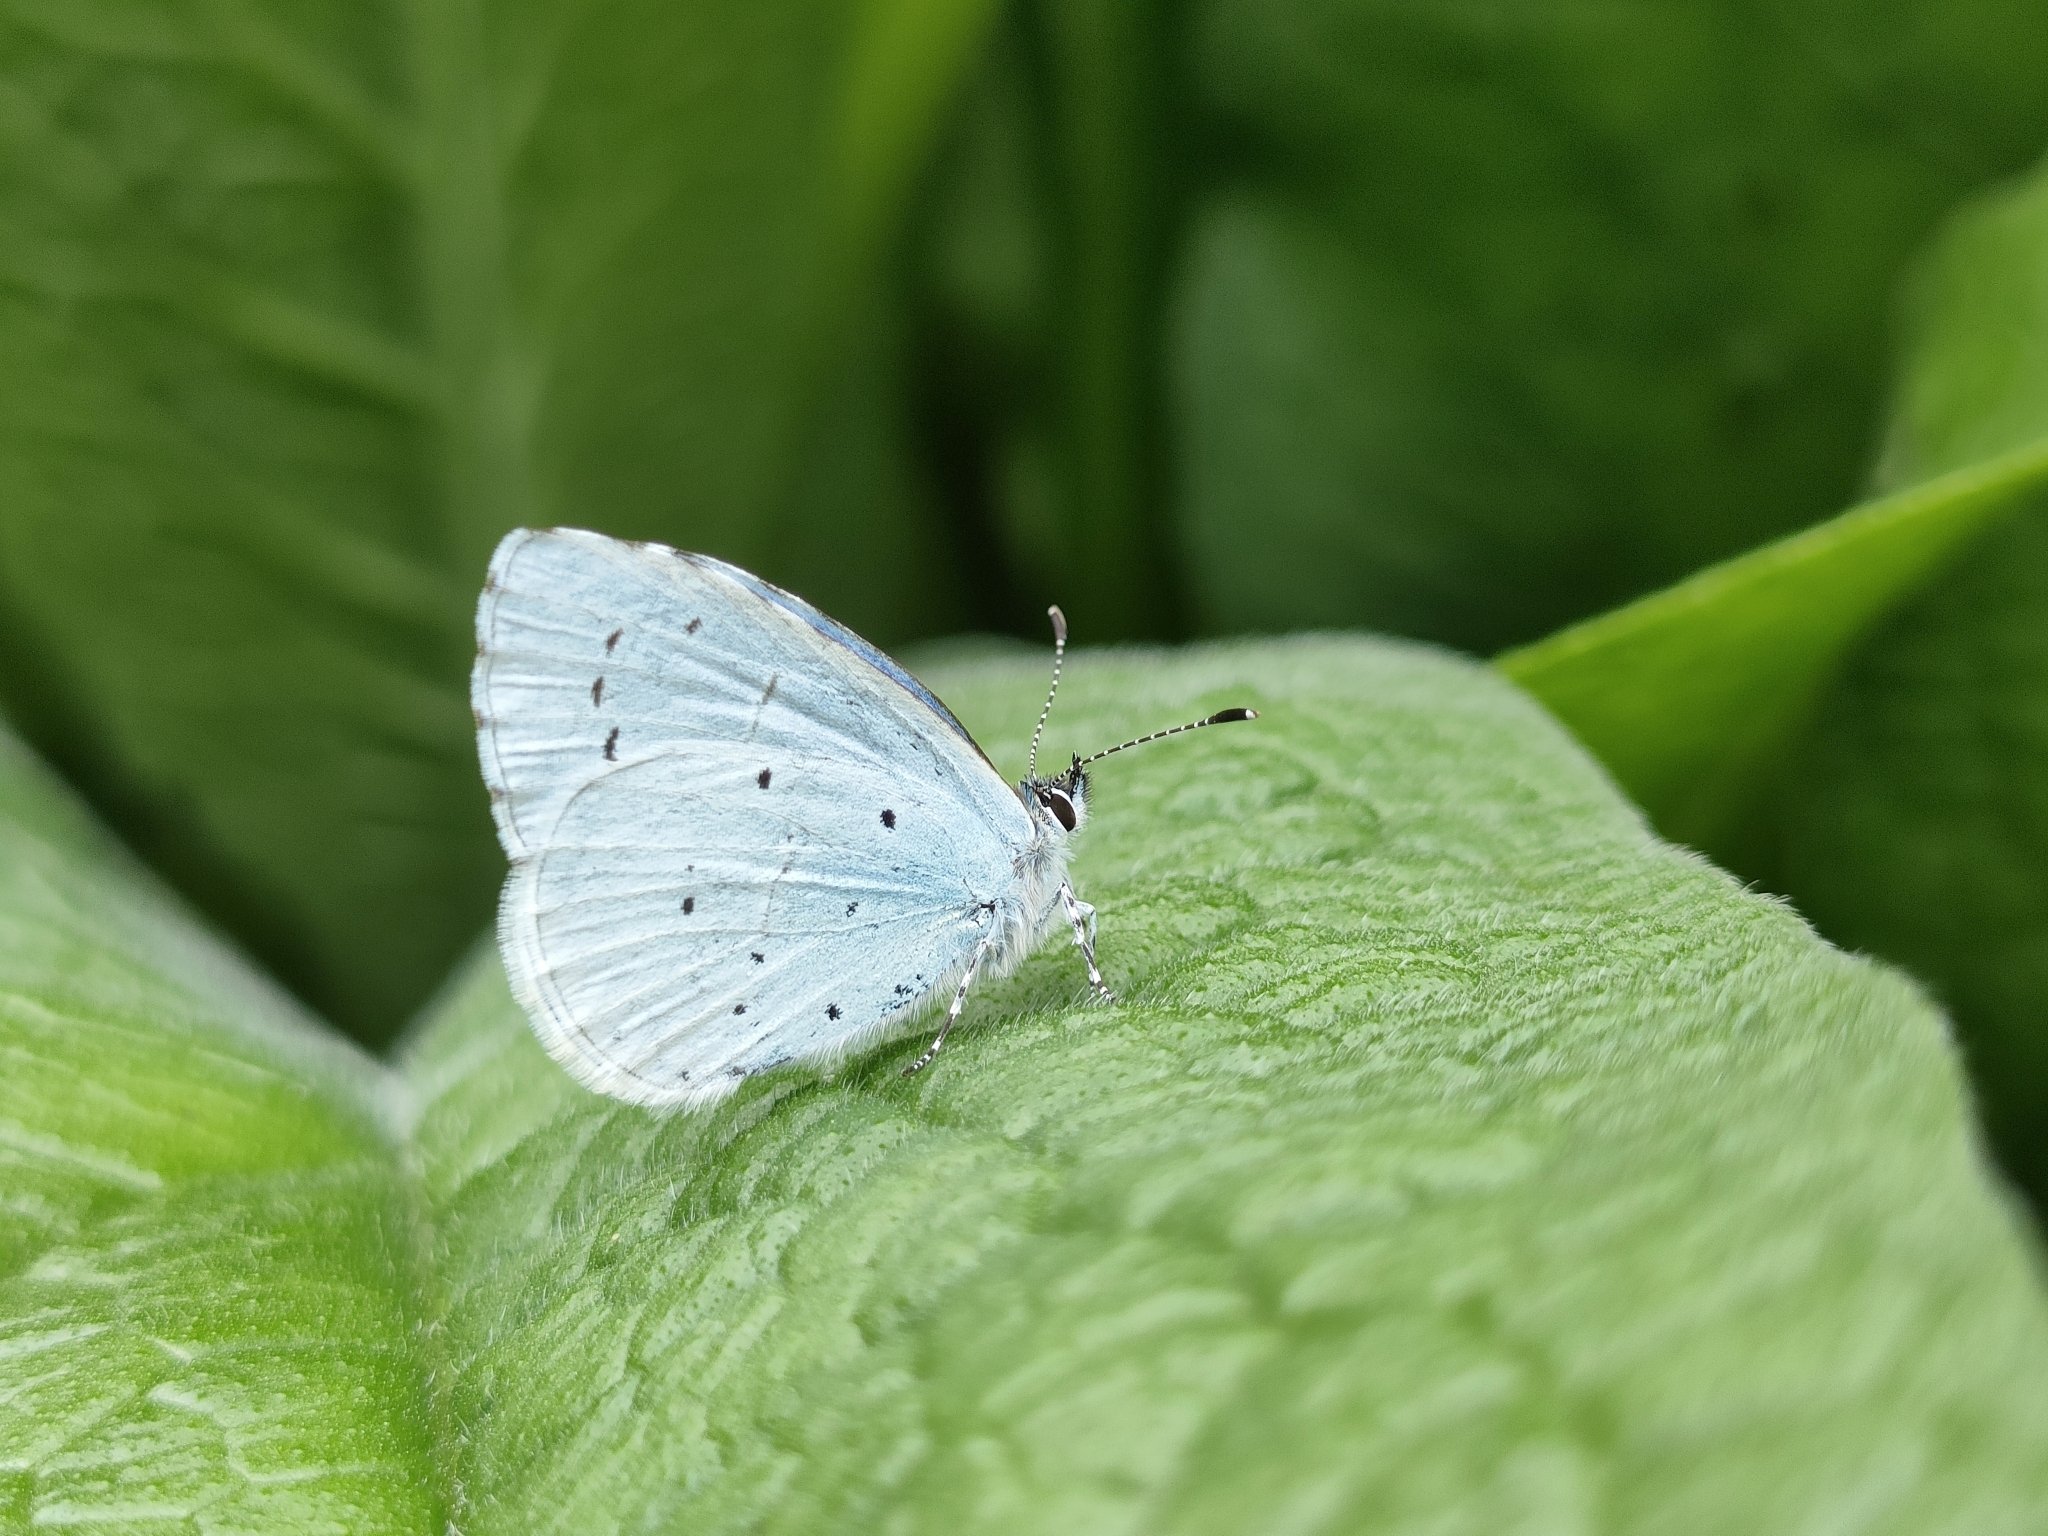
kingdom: Animalia
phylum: Arthropoda
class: Insecta
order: Lepidoptera
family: Lycaenidae
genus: Celastrina
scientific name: Celastrina argiolus
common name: Holly blue
